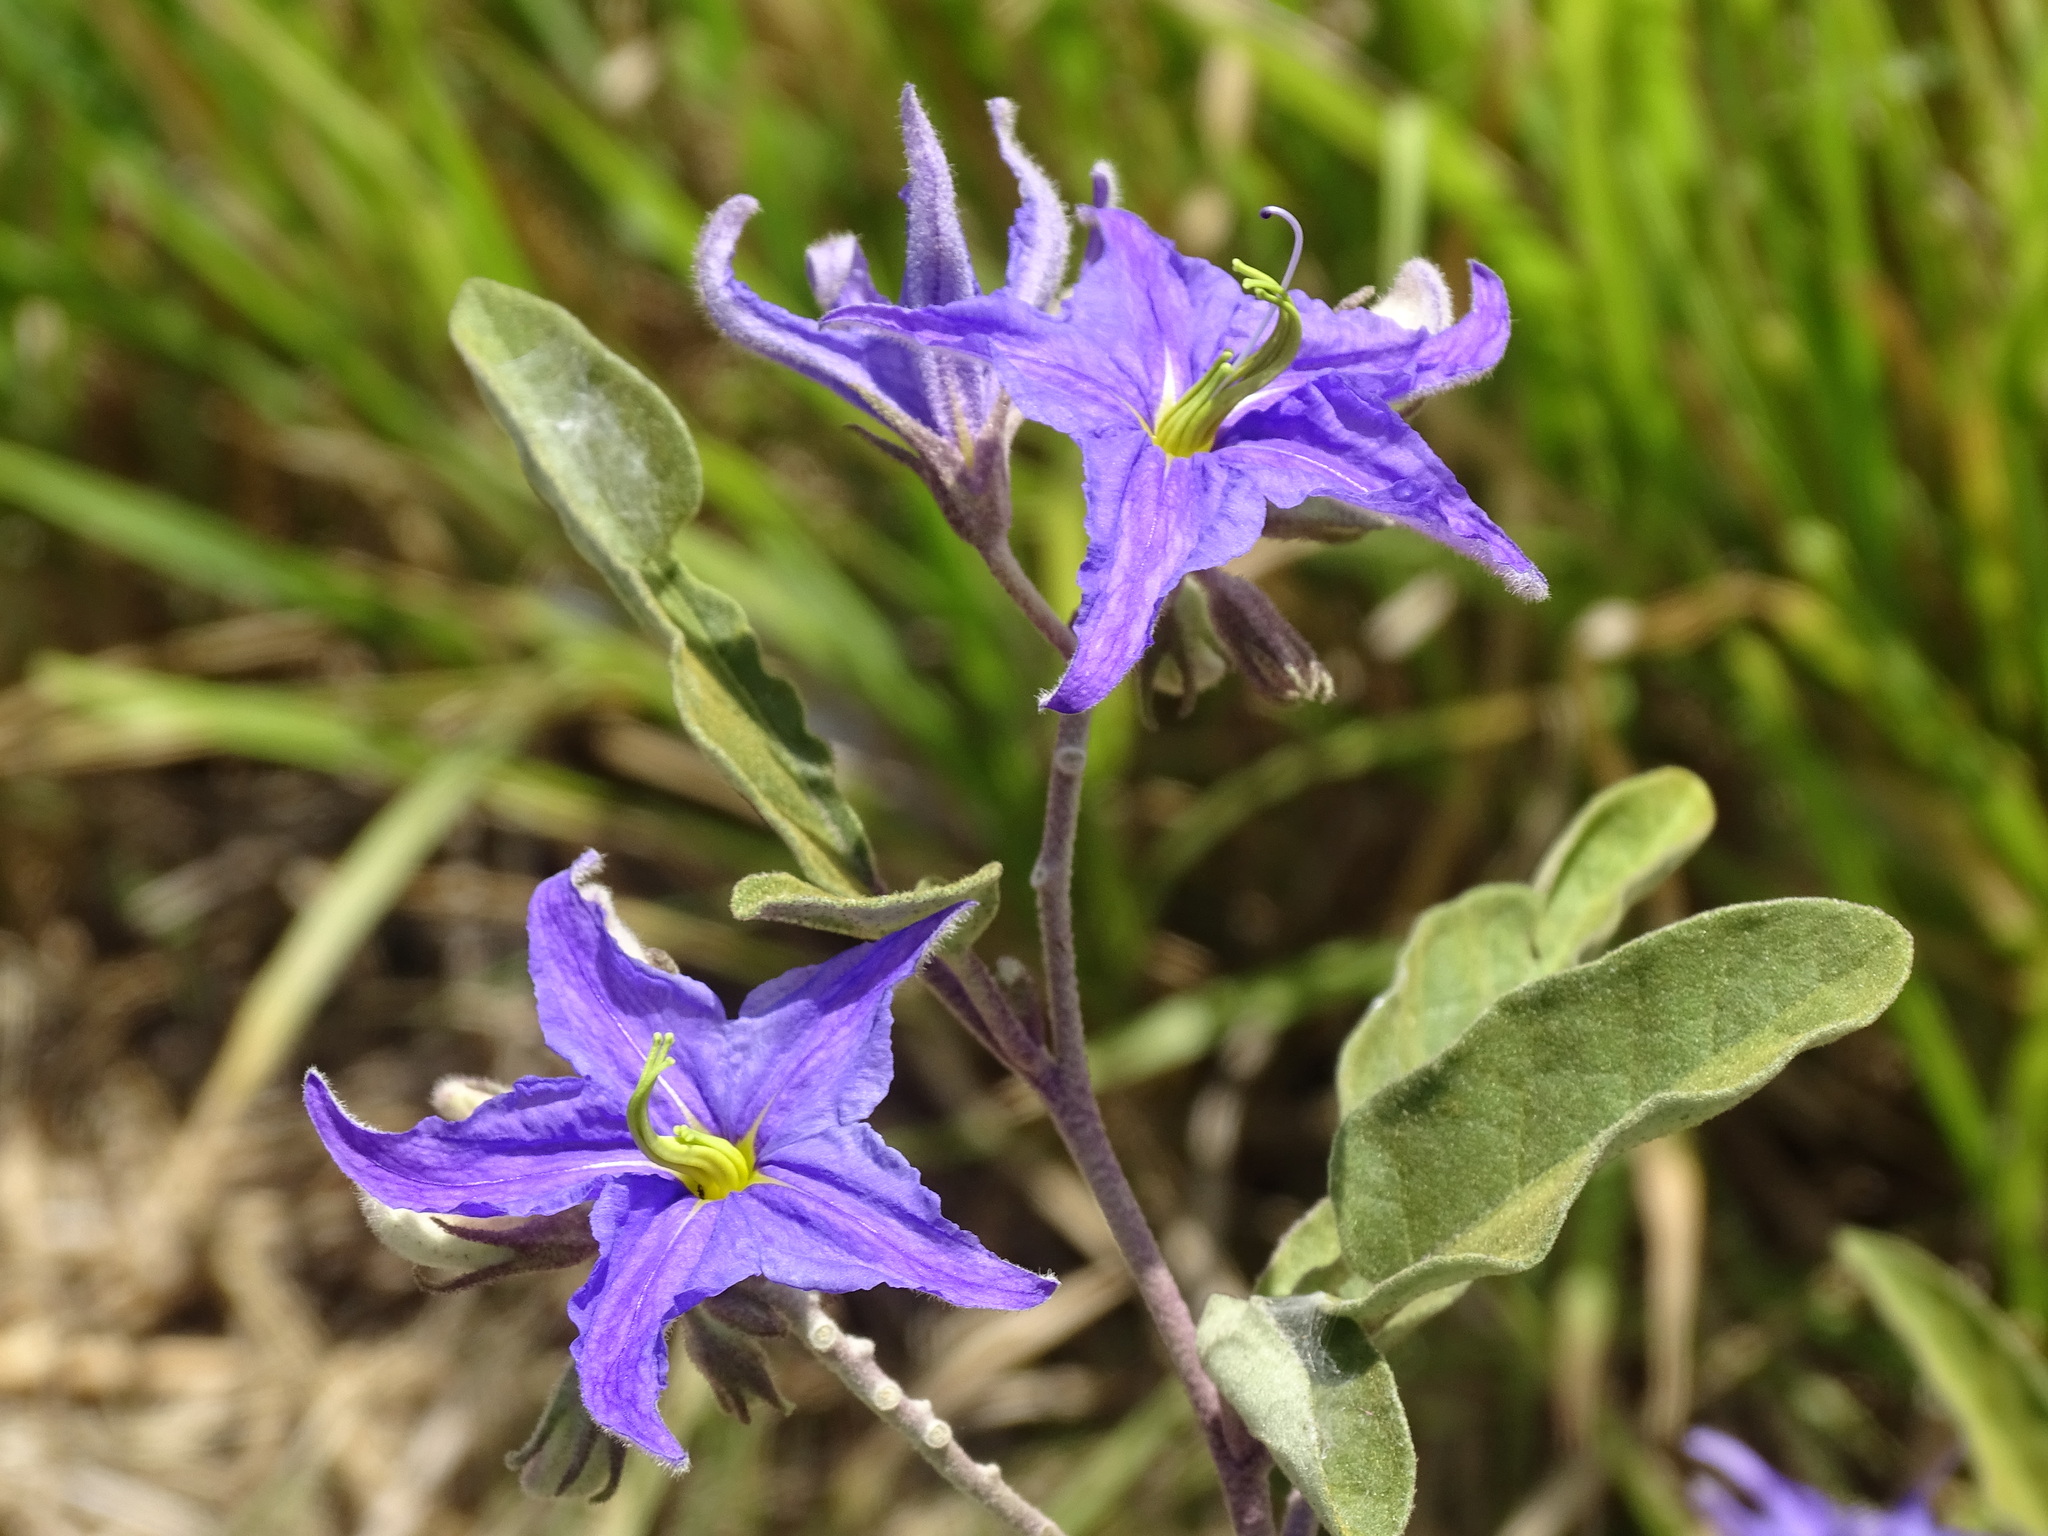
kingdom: Plantae
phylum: Tracheophyta
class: Magnoliopsida
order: Solanales
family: Solanaceae
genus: Solanum
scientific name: Solanum houstonii
